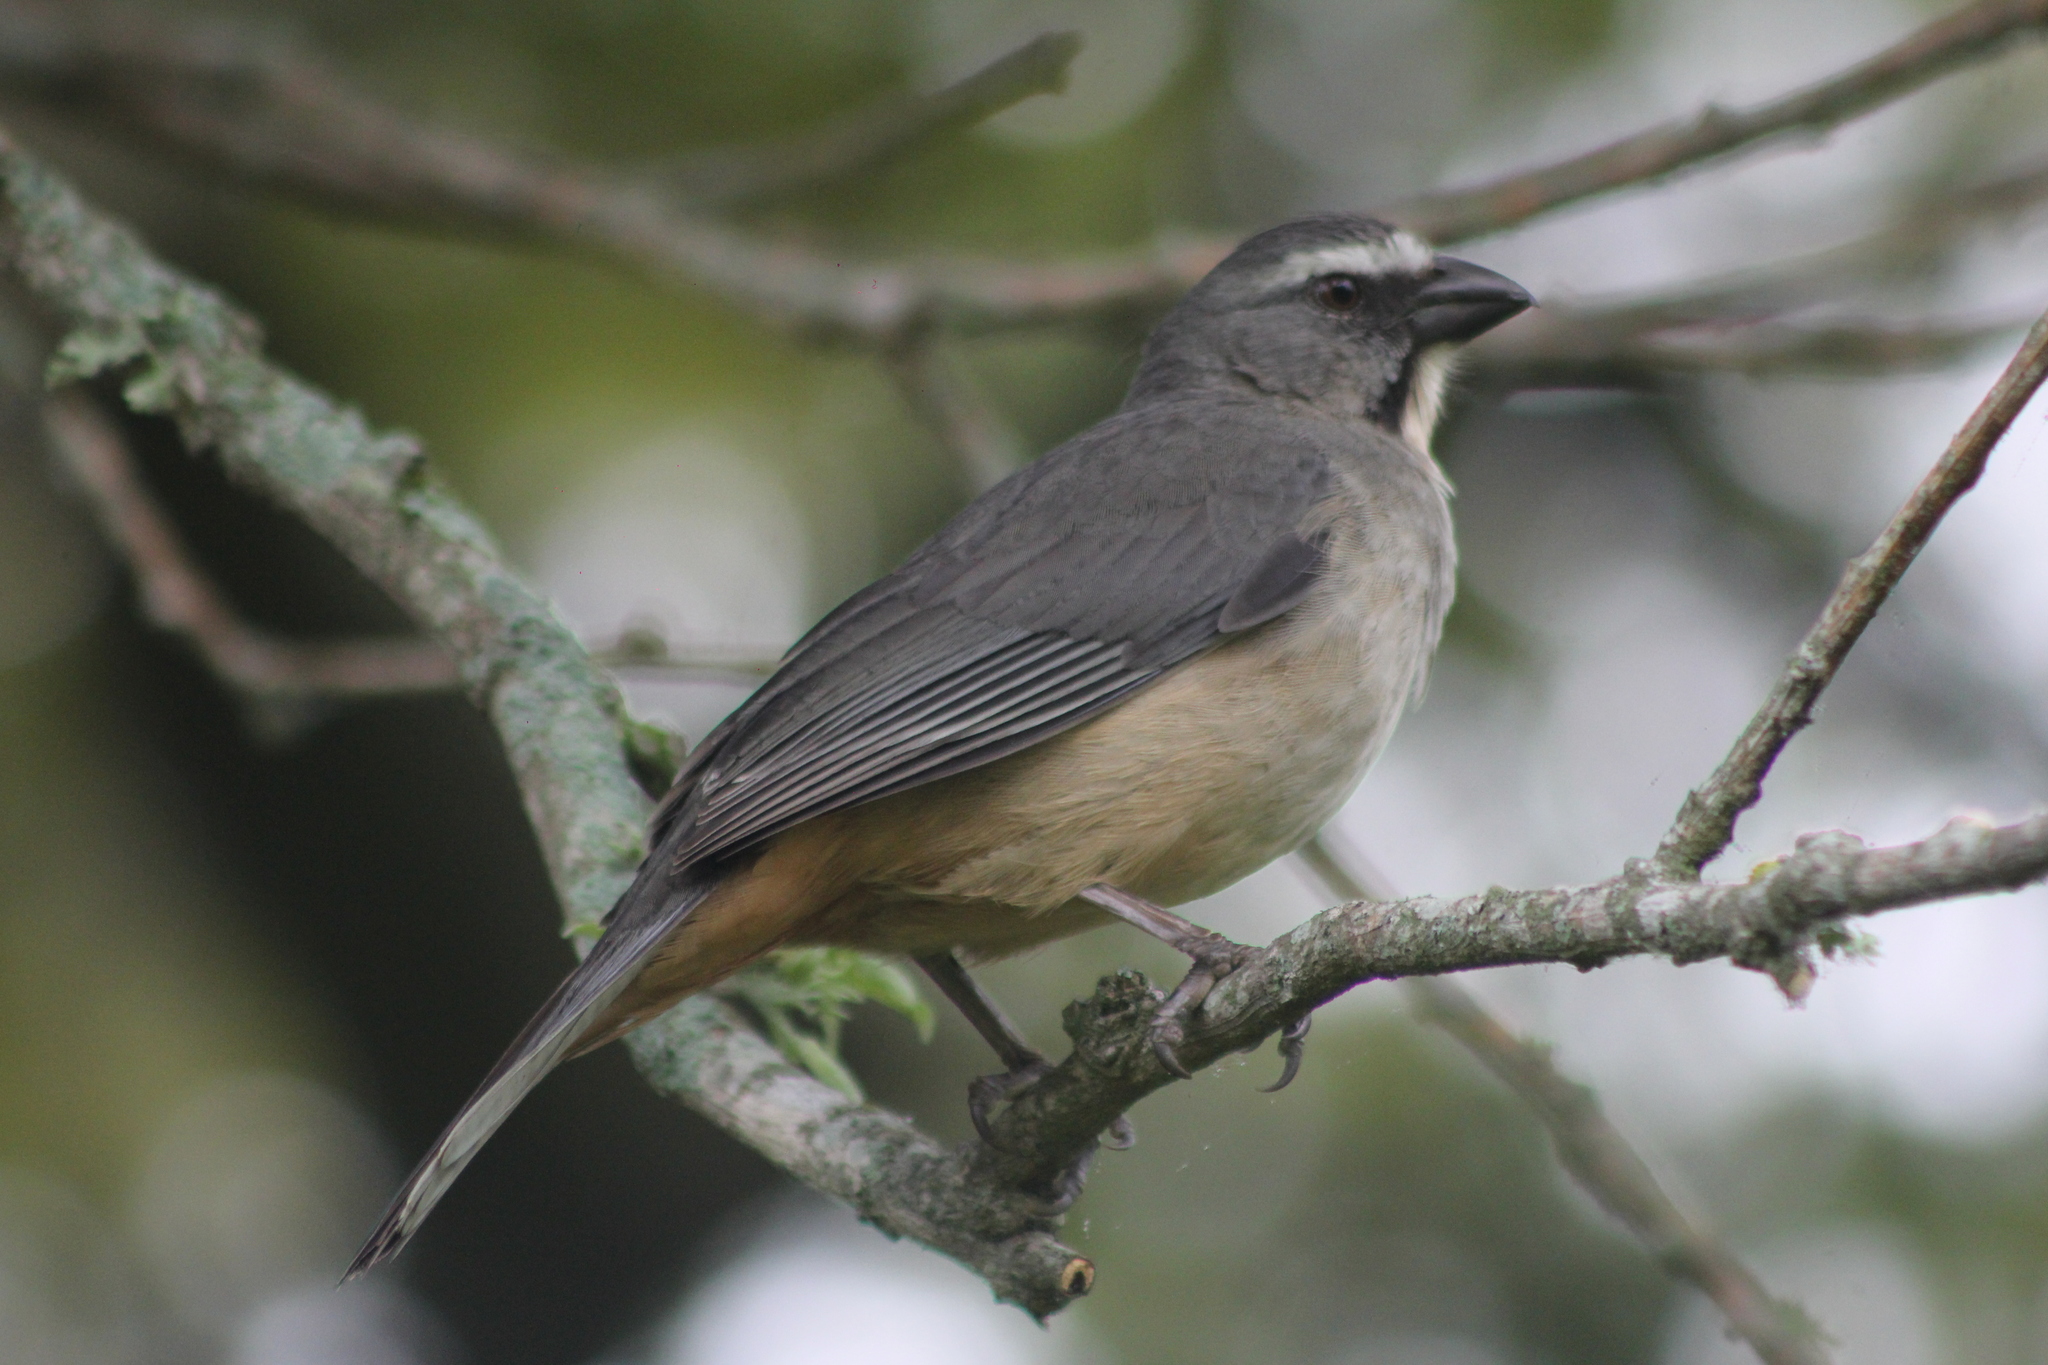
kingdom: Animalia
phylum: Chordata
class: Aves
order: Passeriformes
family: Thraupidae
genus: Saltator
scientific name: Saltator coerulescens
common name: Grayish saltator
